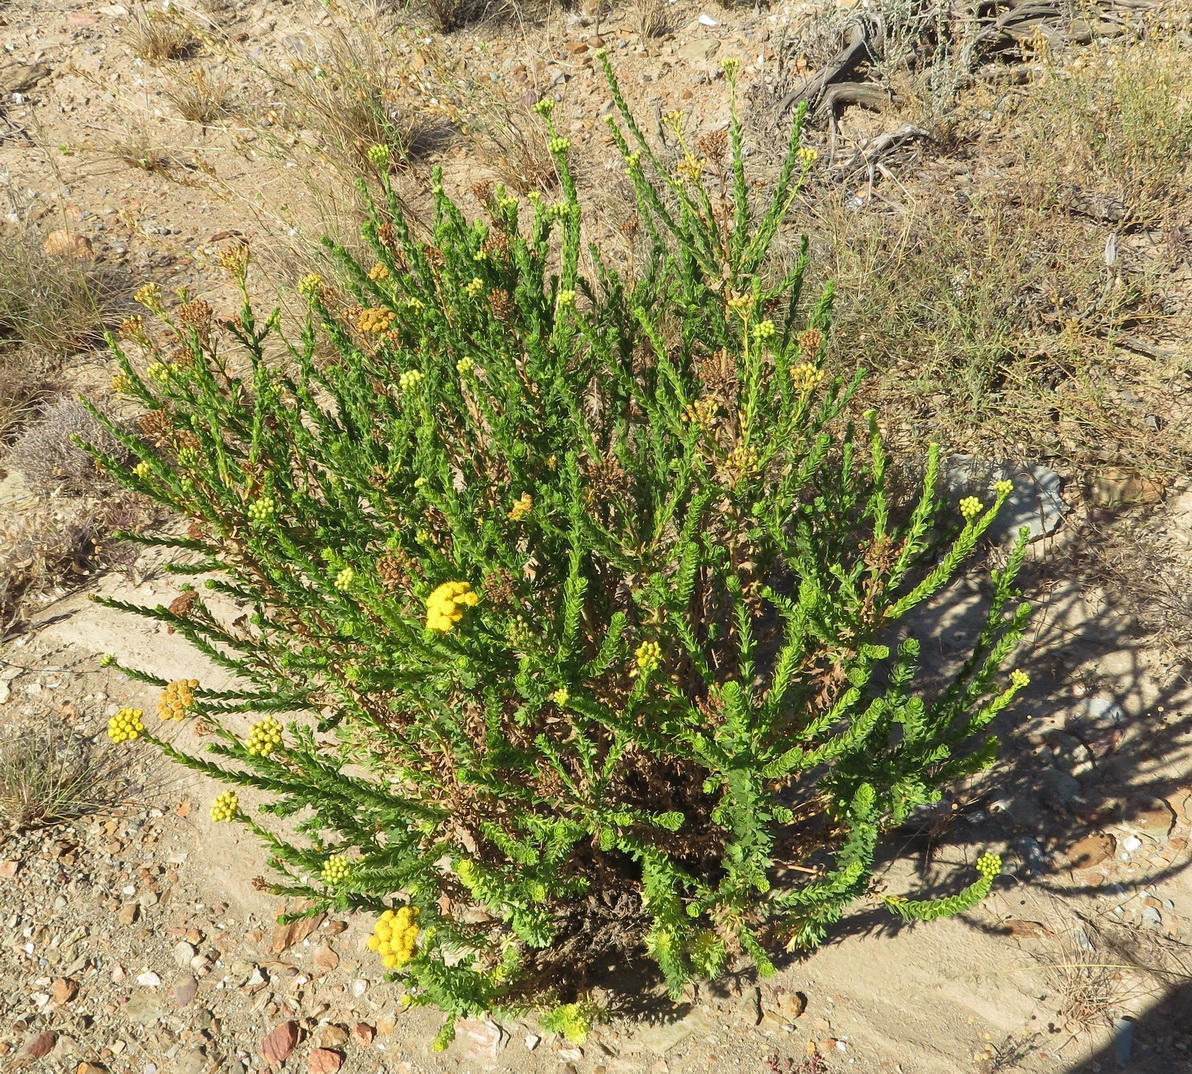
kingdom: Plantae
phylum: Tracheophyta
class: Magnoliopsida
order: Asterales
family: Asteraceae
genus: Athanasia
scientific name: Athanasia trifurcata
